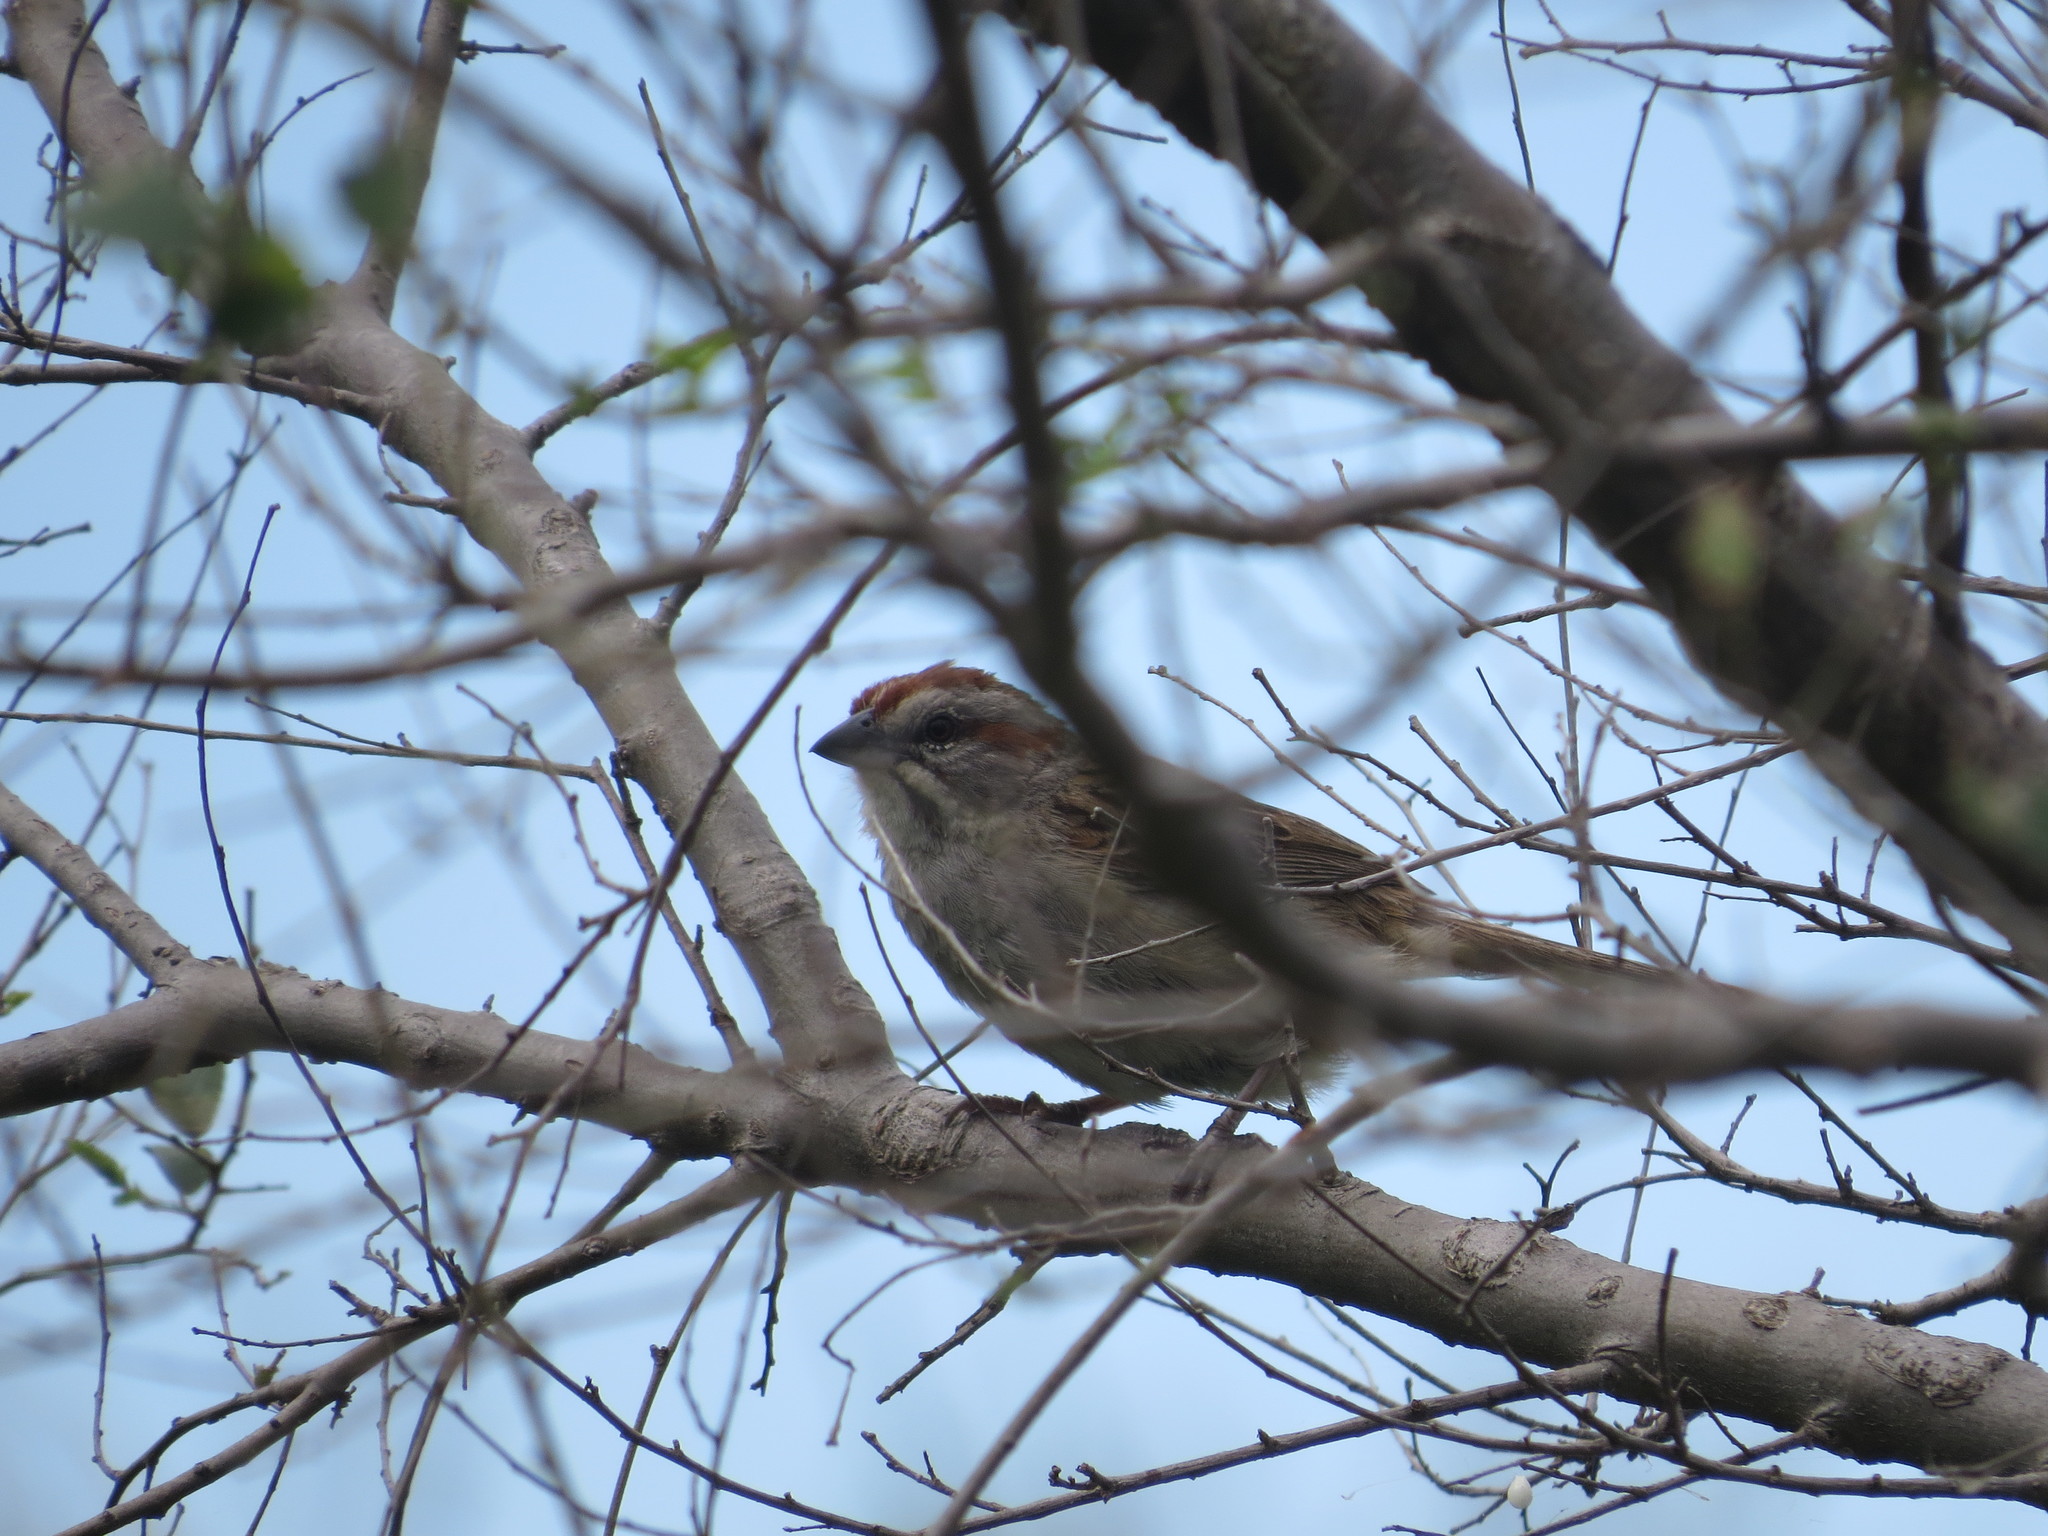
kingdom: Animalia
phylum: Chordata
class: Aves
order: Passeriformes
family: Passerellidae
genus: Rhynchospiza
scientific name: Rhynchospiza strigiceps
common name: Stripe-capped sparrow
